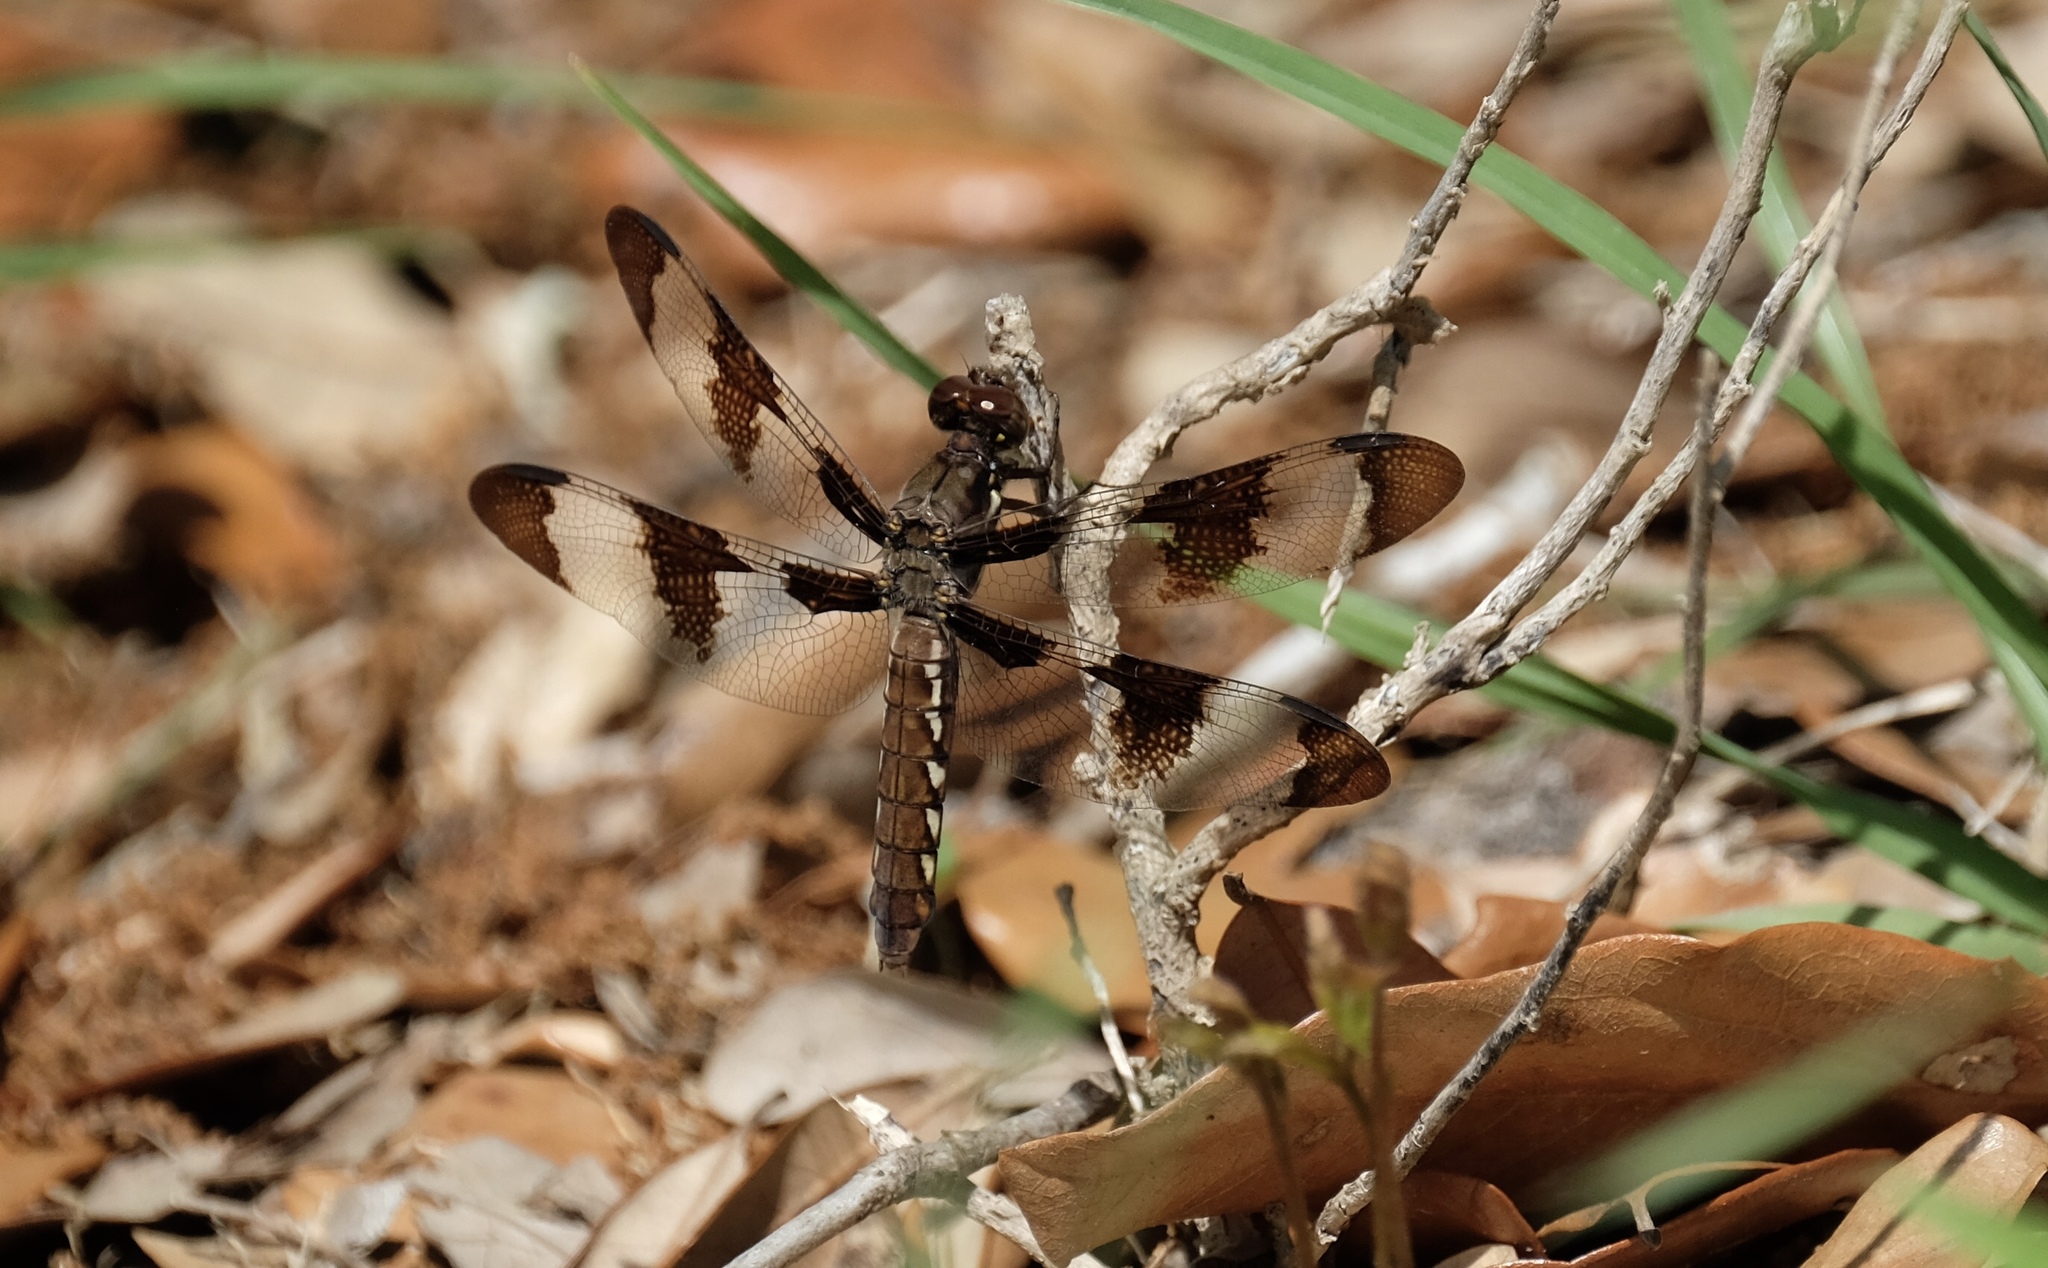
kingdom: Animalia
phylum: Arthropoda
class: Insecta
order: Odonata
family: Libellulidae
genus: Plathemis
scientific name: Plathemis lydia
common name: Common whitetail
